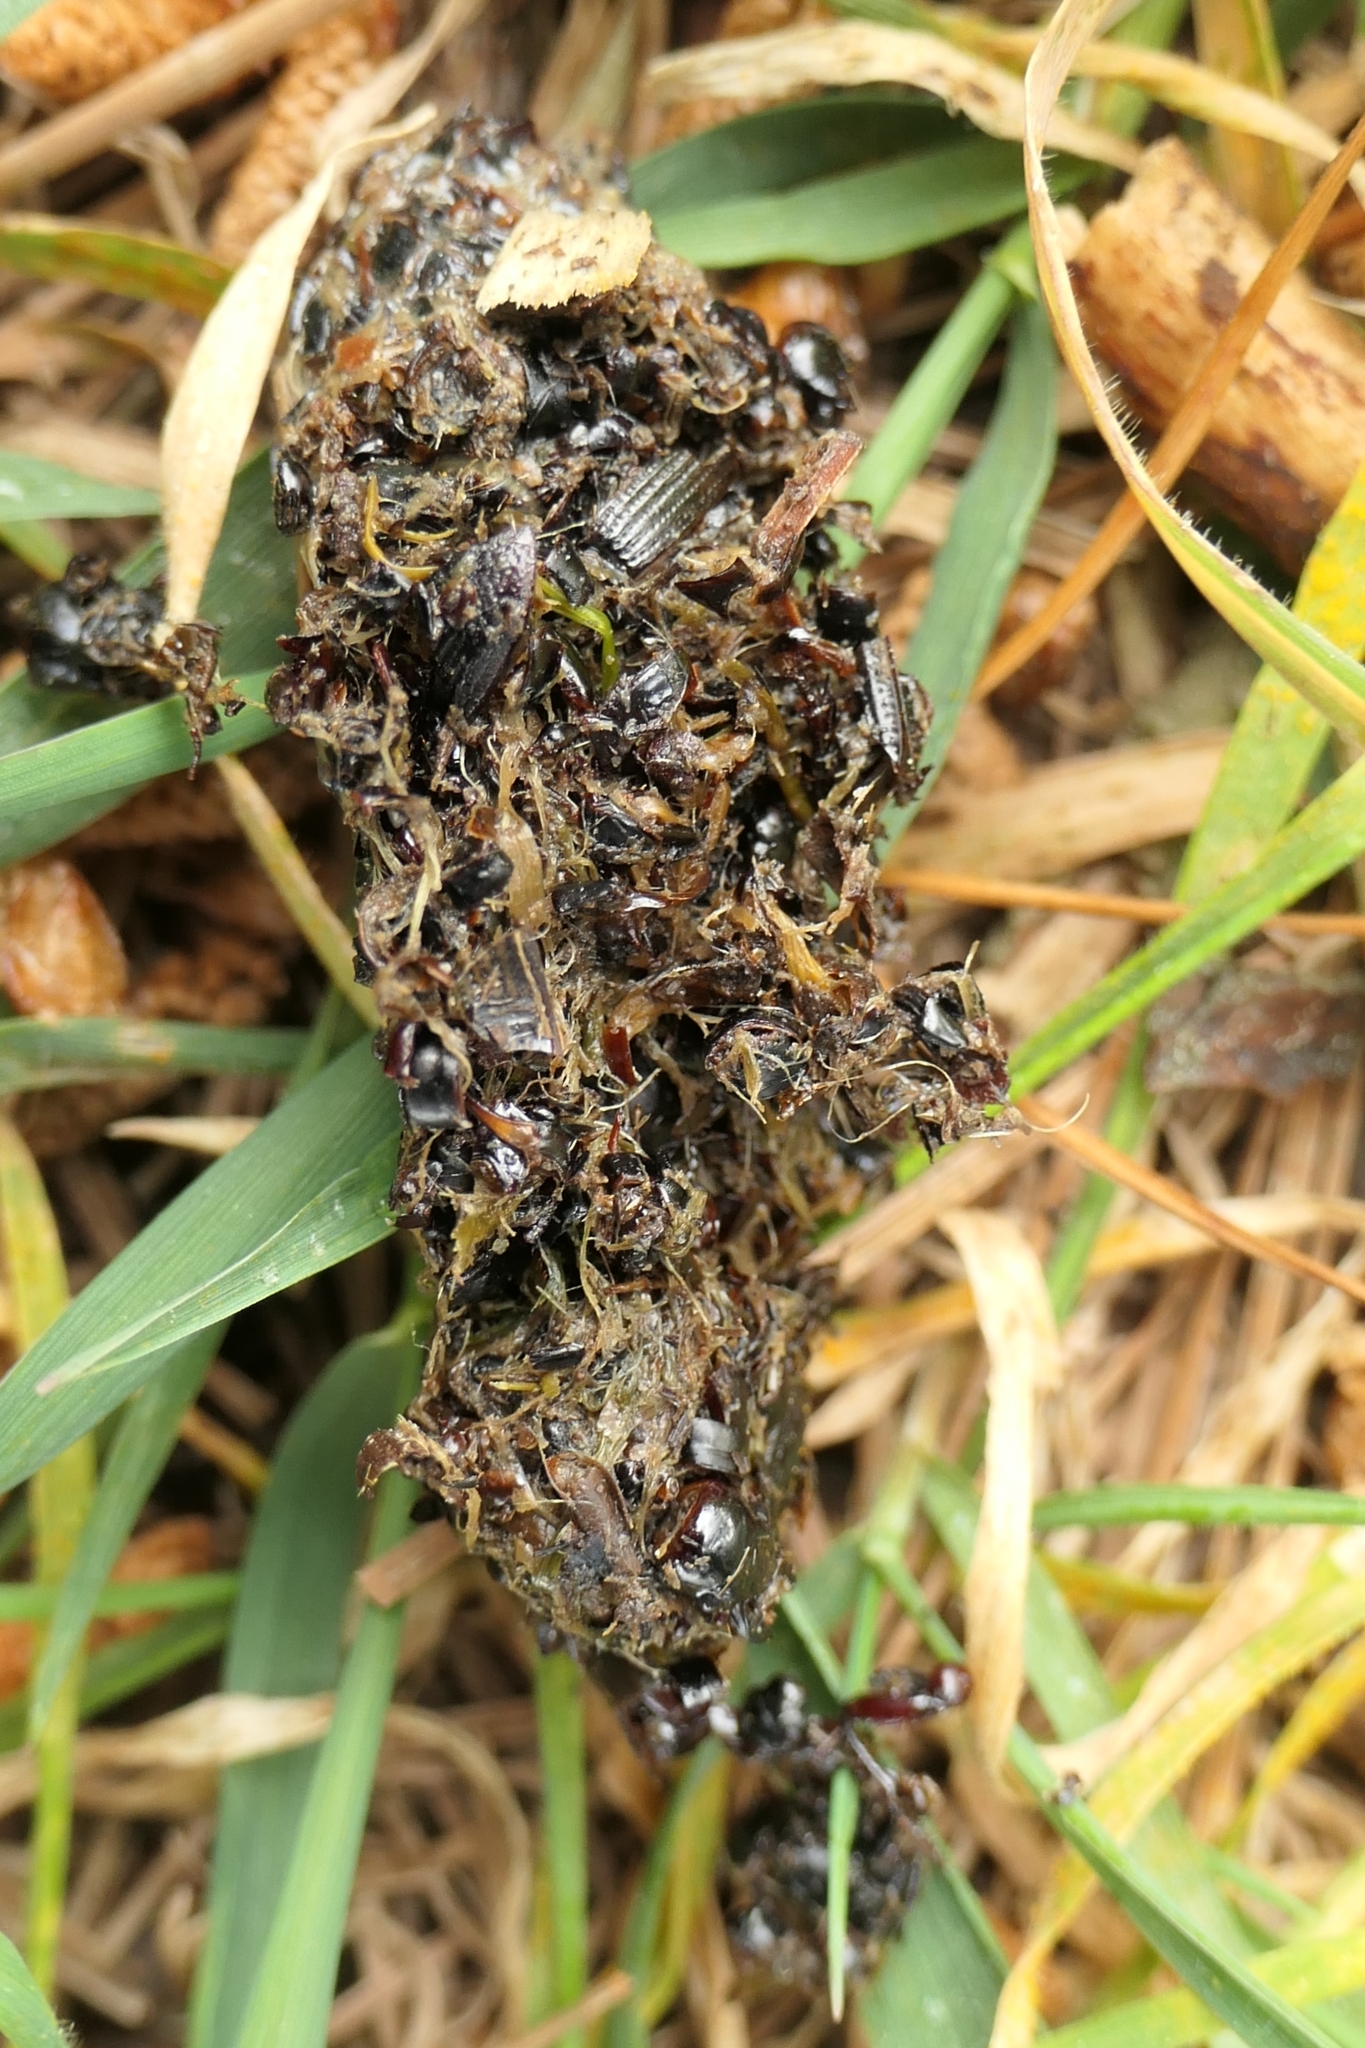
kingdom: Animalia
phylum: Chordata
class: Aves
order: Strigiformes
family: Strigidae
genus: Athene
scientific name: Athene noctua
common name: Little owl
